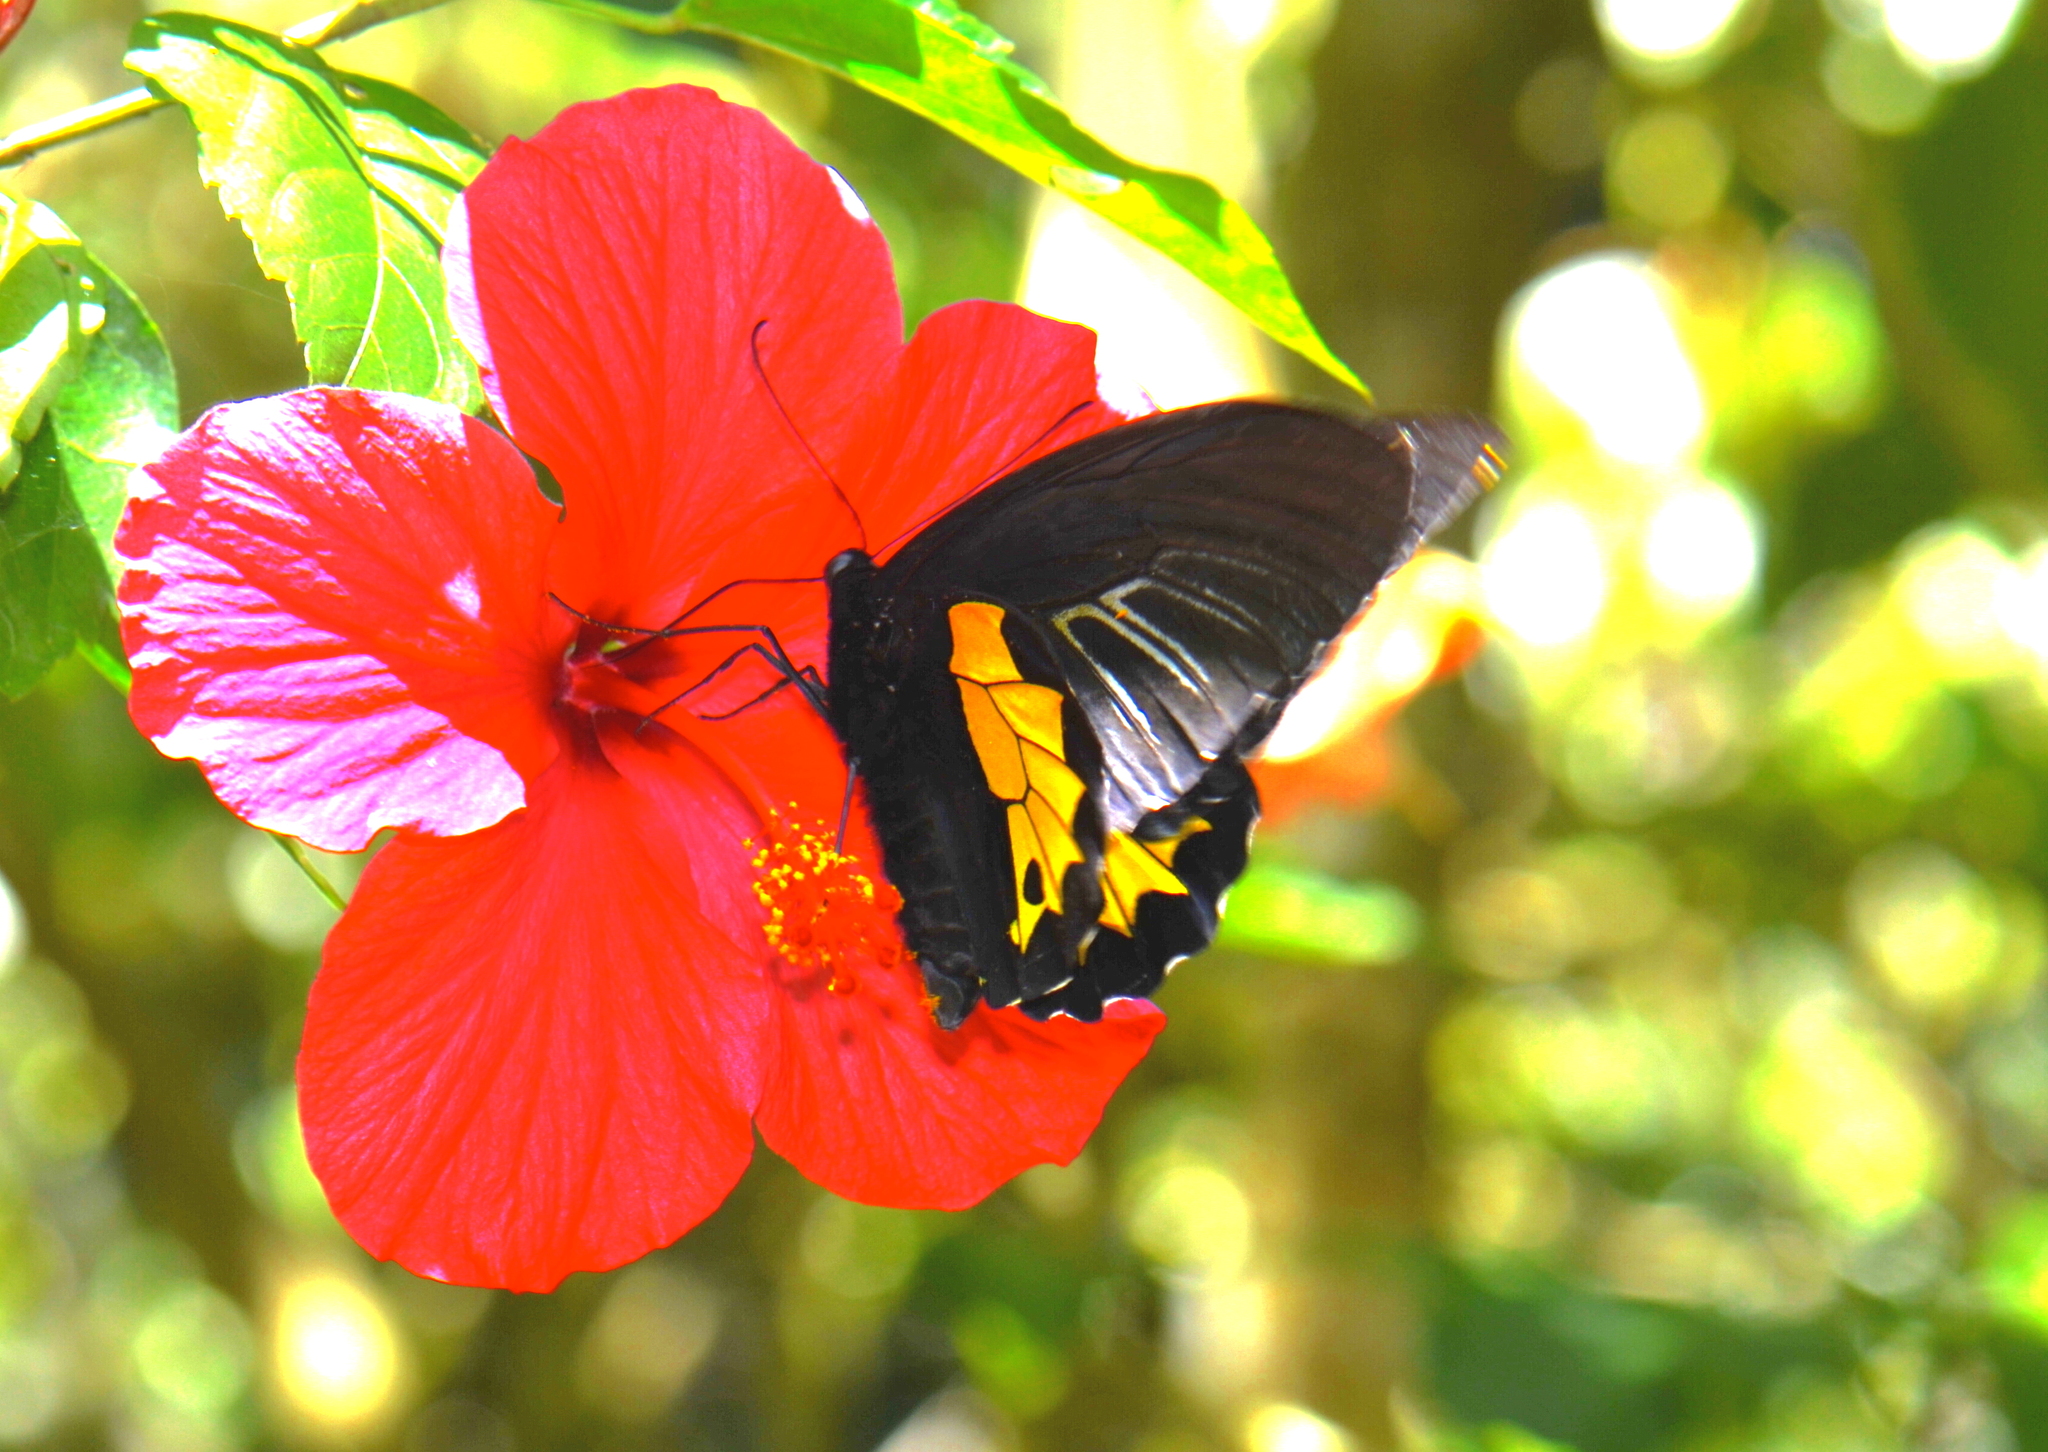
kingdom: Animalia
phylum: Arthropoda
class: Insecta
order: Lepidoptera
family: Papilionidae
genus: Troides
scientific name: Troides vandepolli
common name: Van de poll’s birdwing
